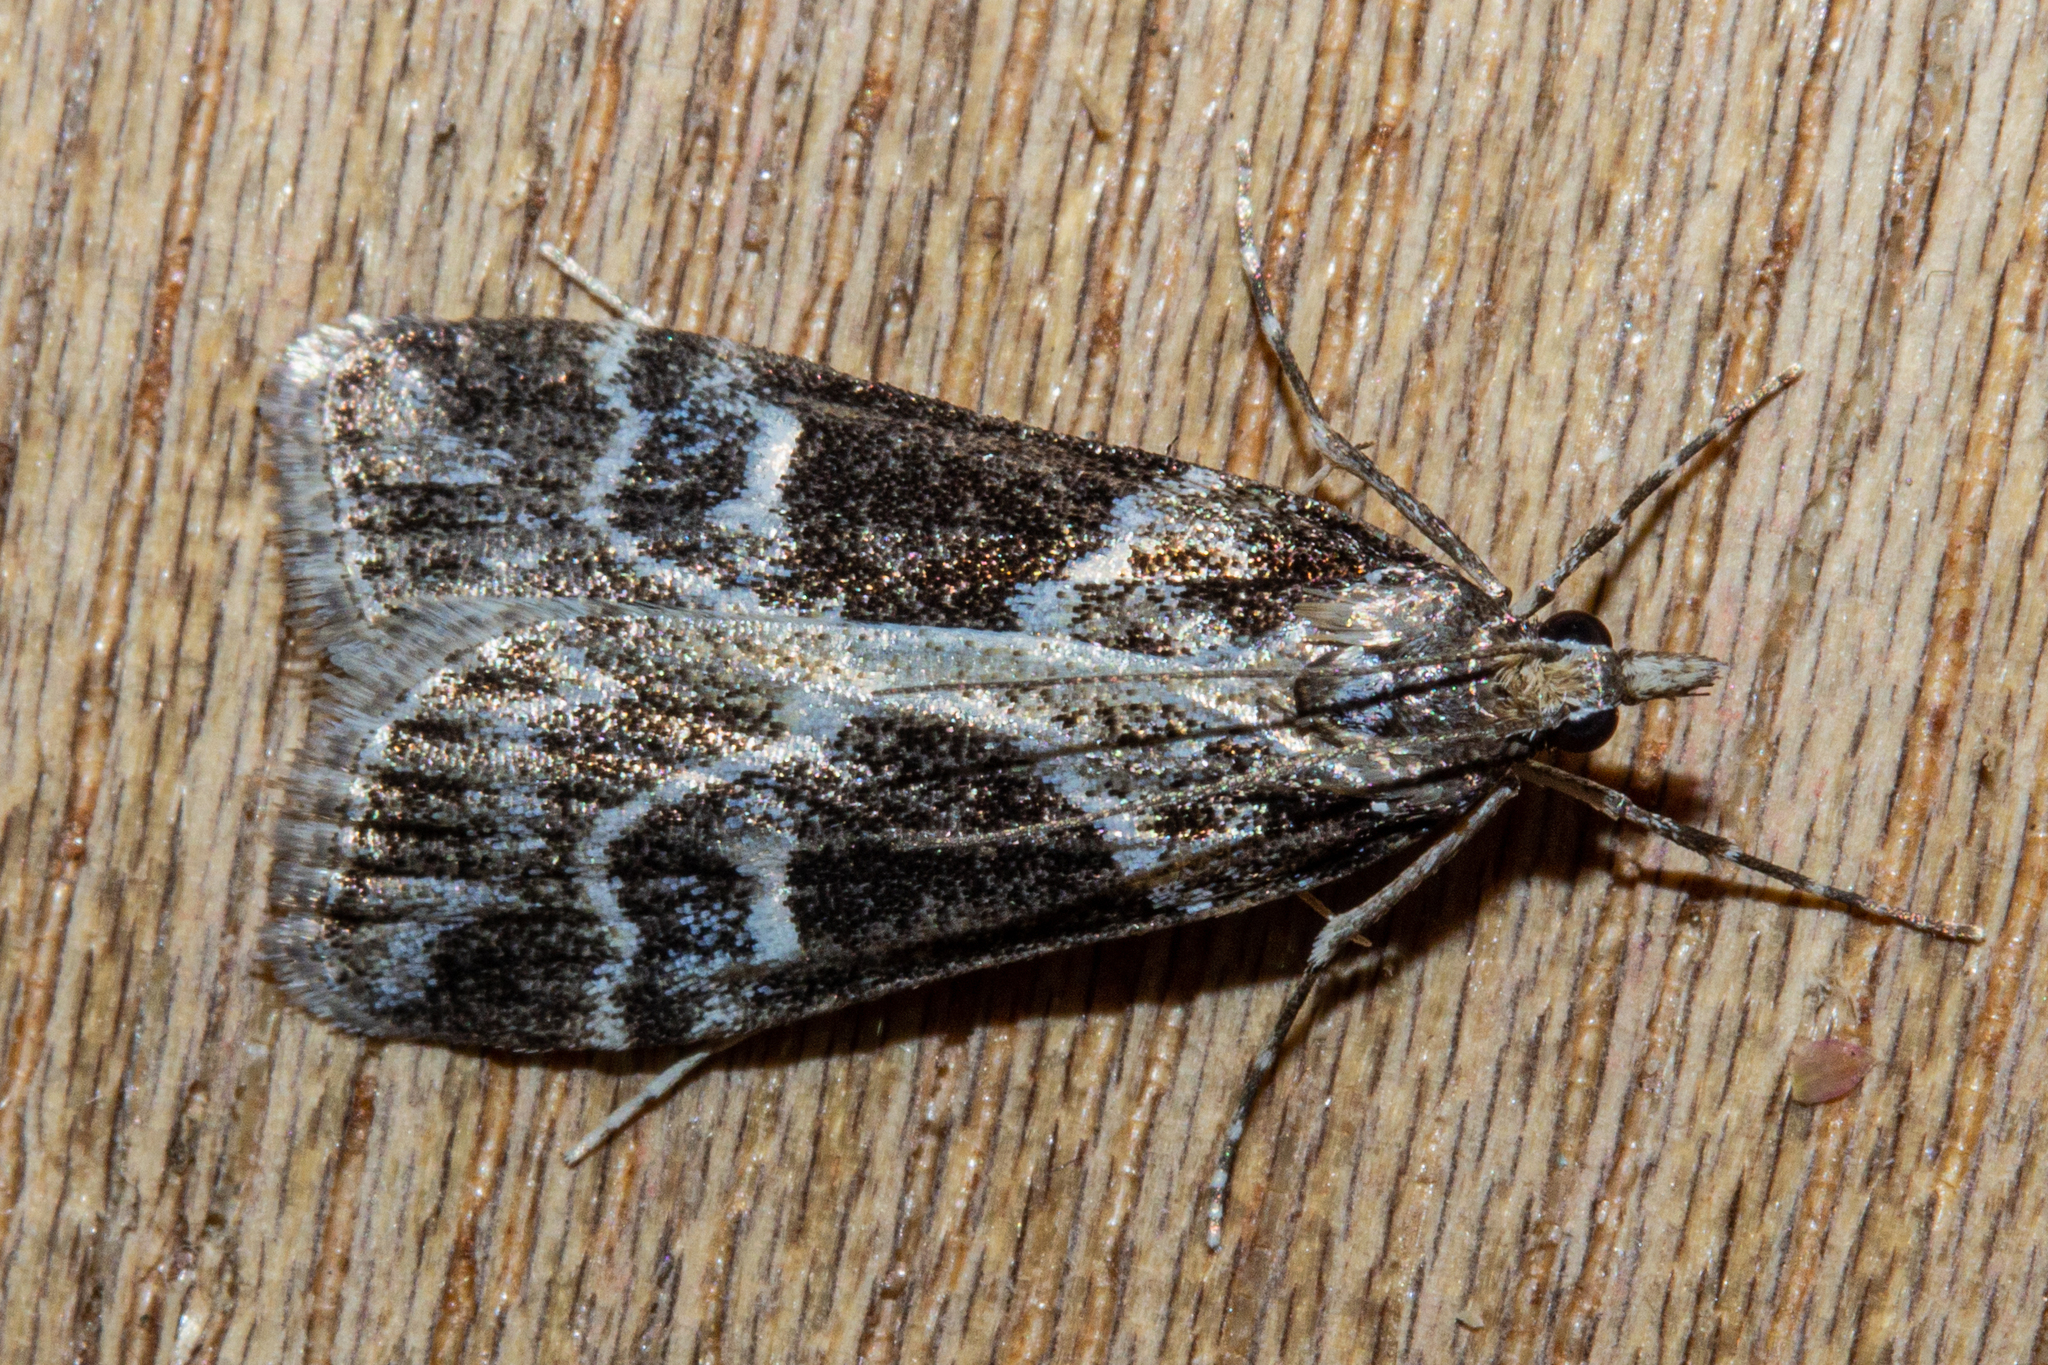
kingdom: Animalia
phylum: Arthropoda
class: Insecta
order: Lepidoptera
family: Crambidae
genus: Eudonia
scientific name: Eudonia melanaegis
